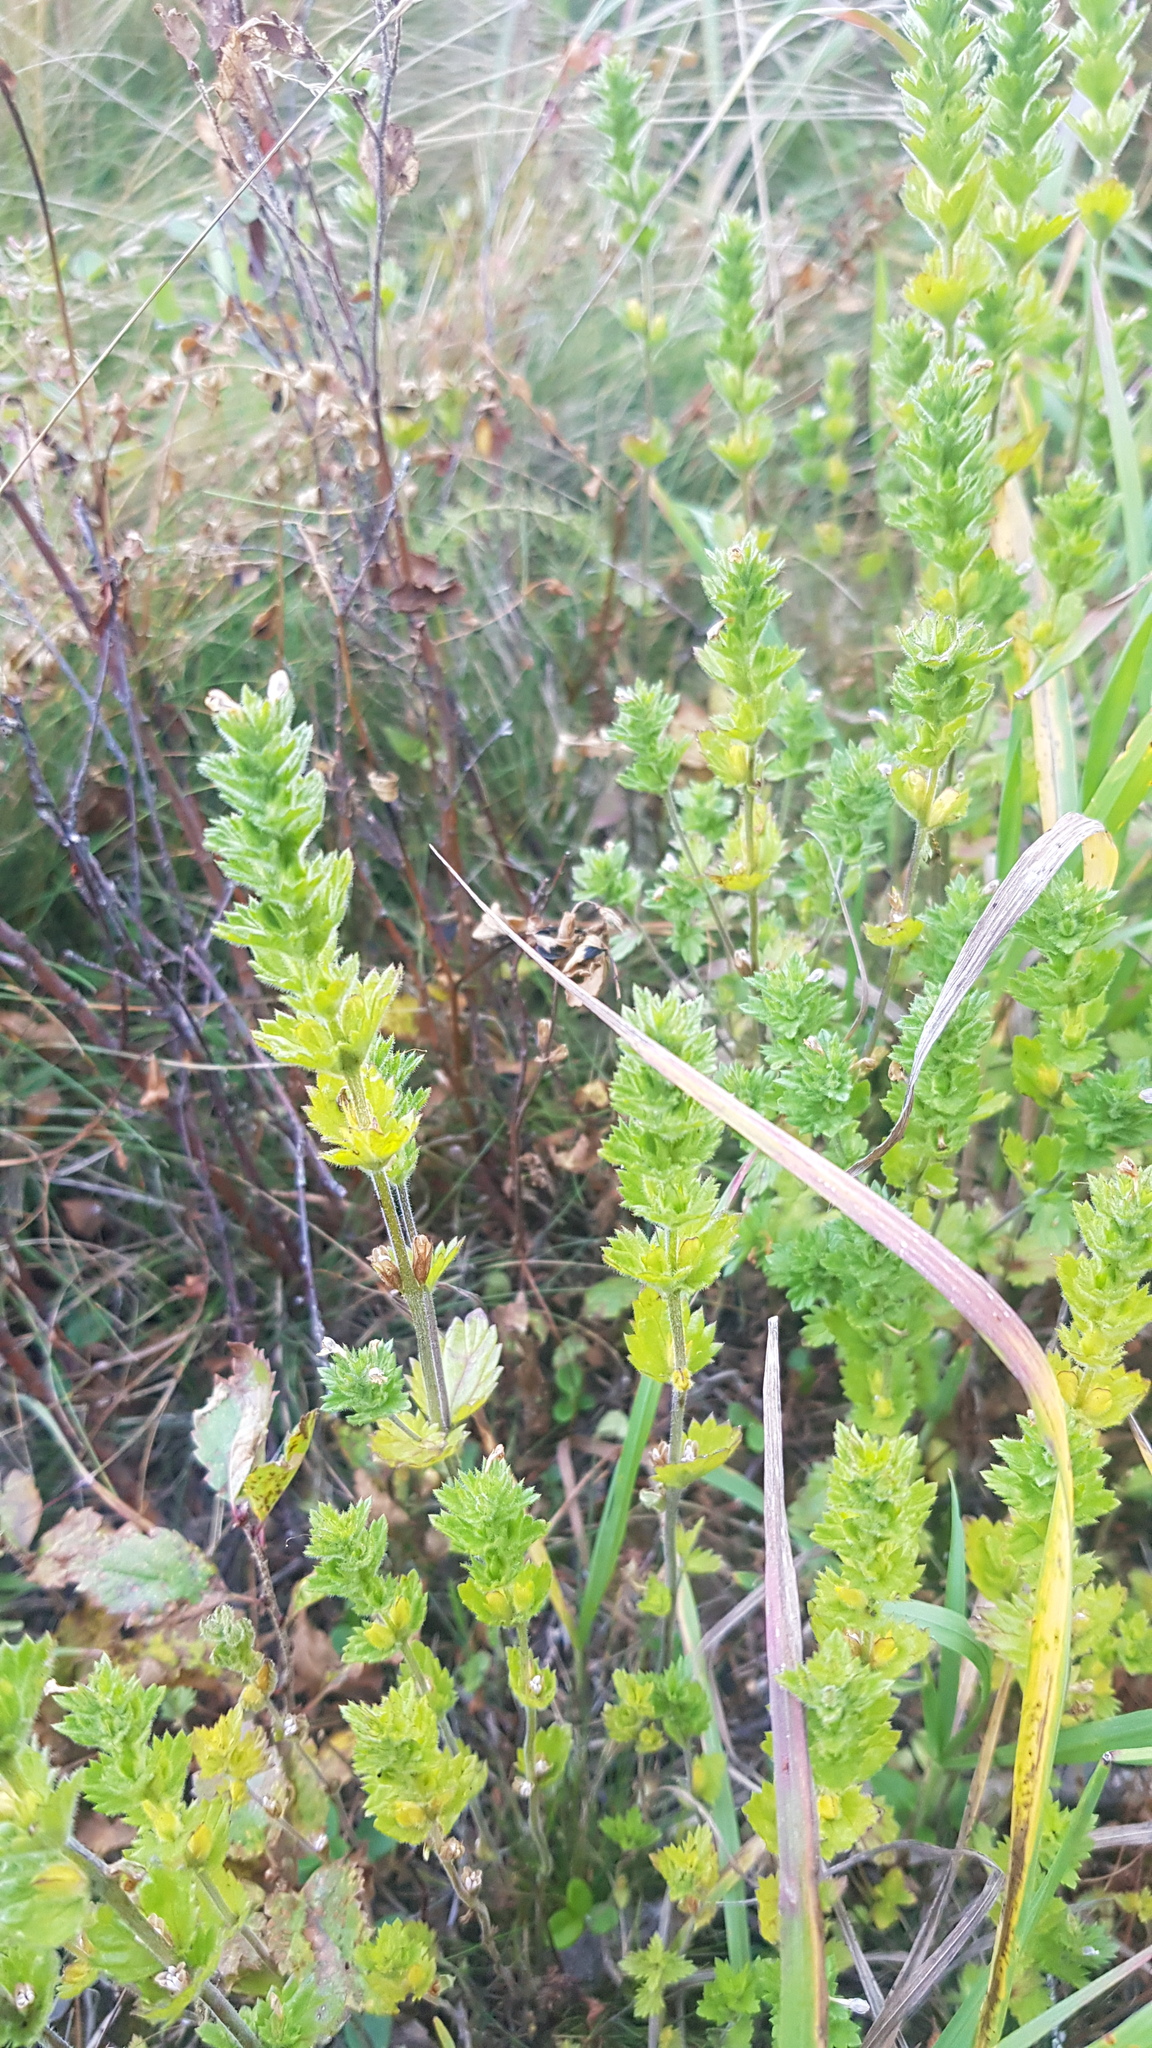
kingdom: Plantae
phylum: Tracheophyta
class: Magnoliopsida
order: Lamiales
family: Orobanchaceae
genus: Euphrasia
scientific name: Euphrasia pectinata
